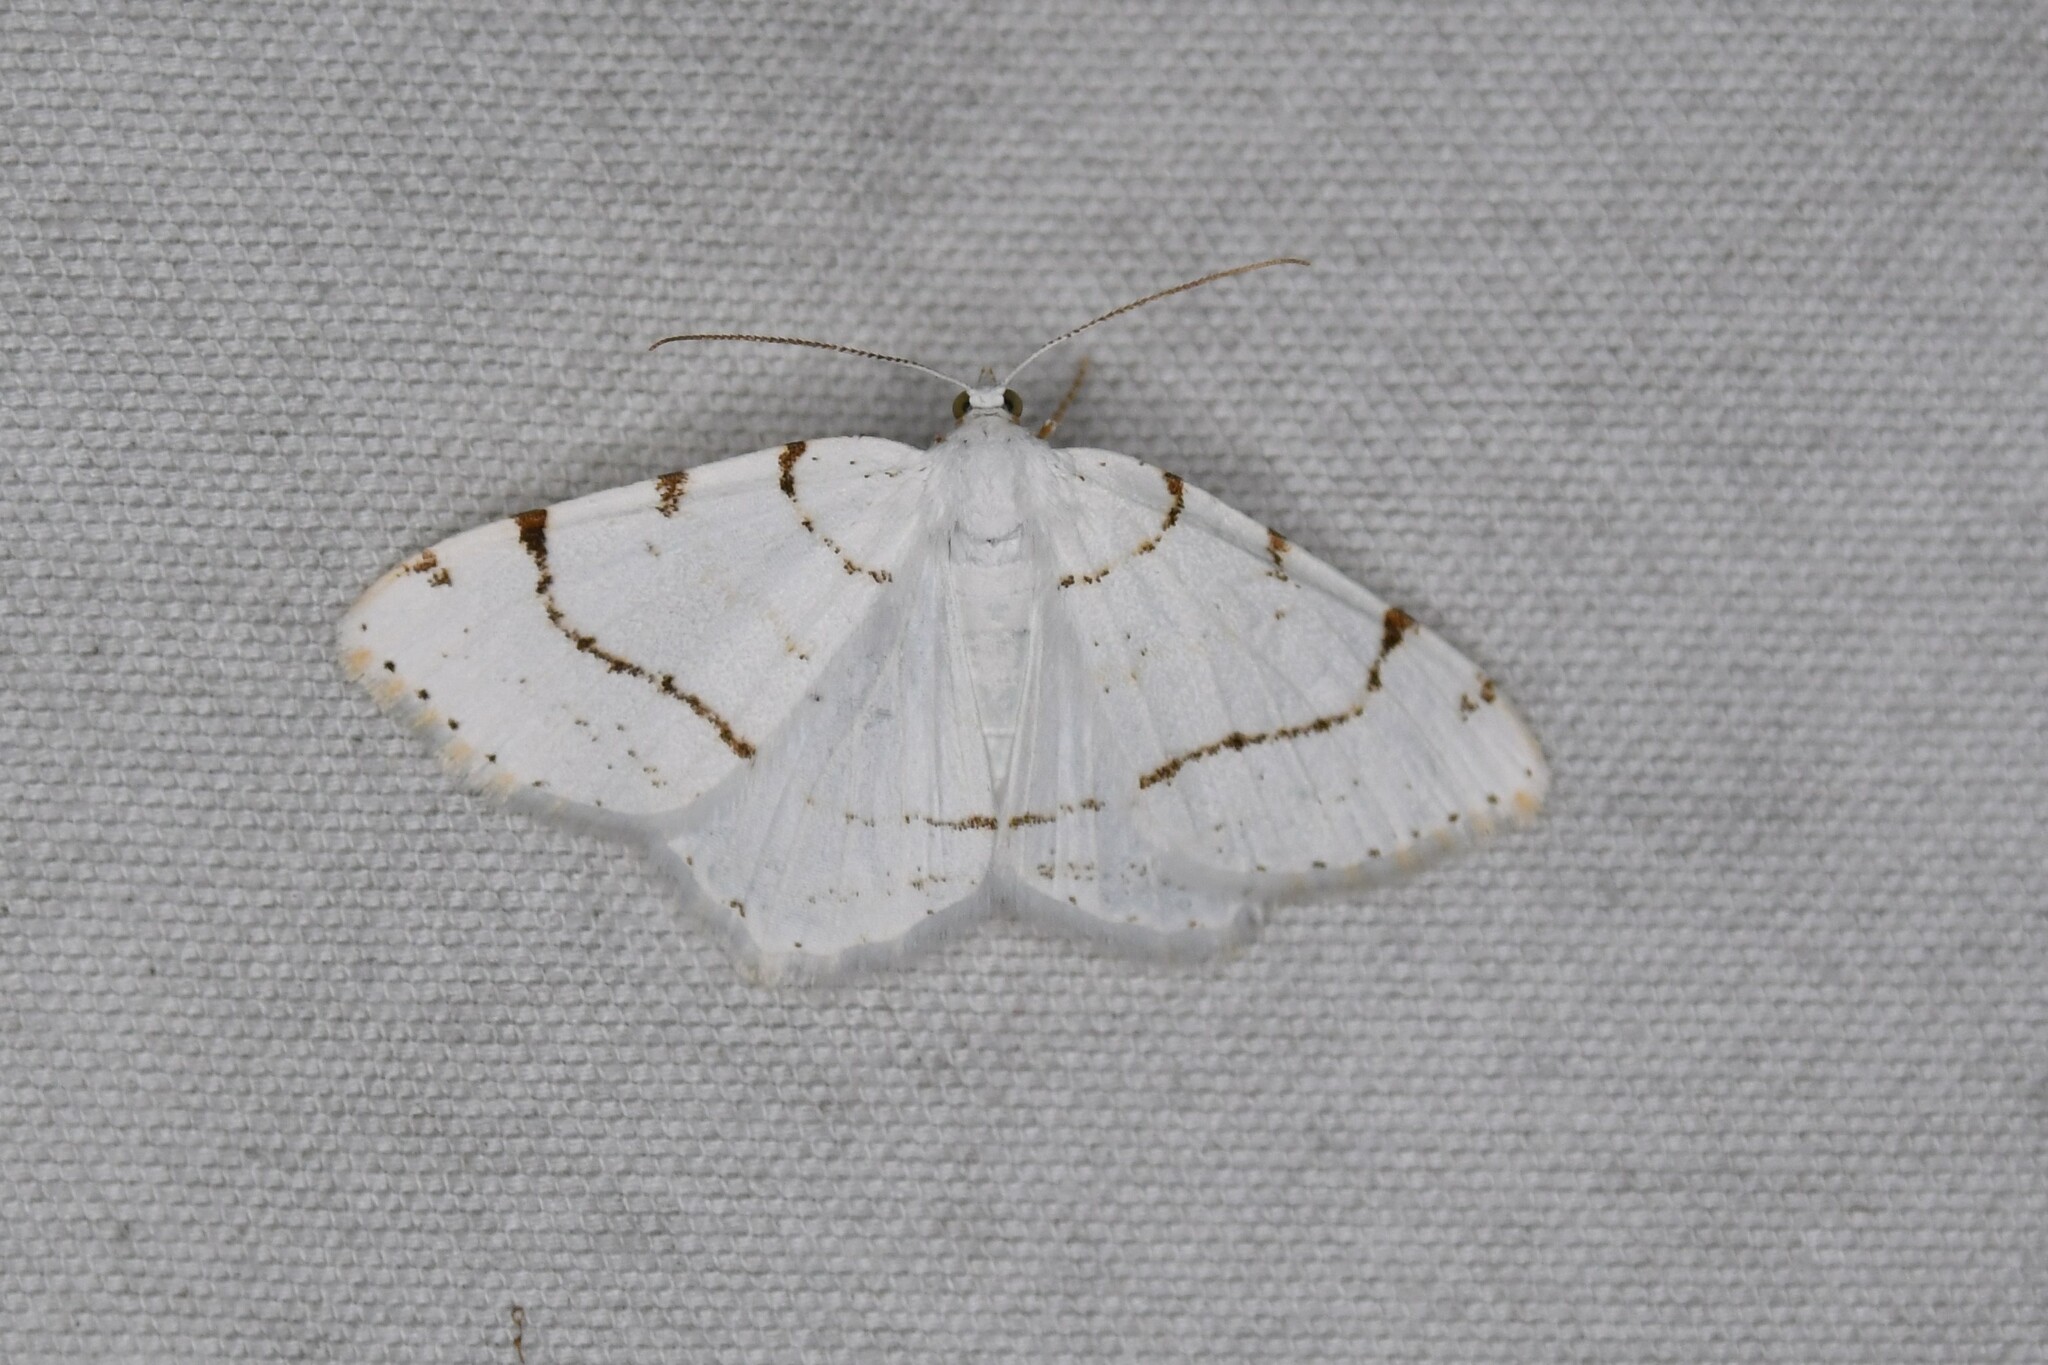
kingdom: Animalia
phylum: Arthropoda
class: Insecta
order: Lepidoptera
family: Geometridae
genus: Macaria
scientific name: Macaria pustularia
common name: Lesser maple spanworm moth
